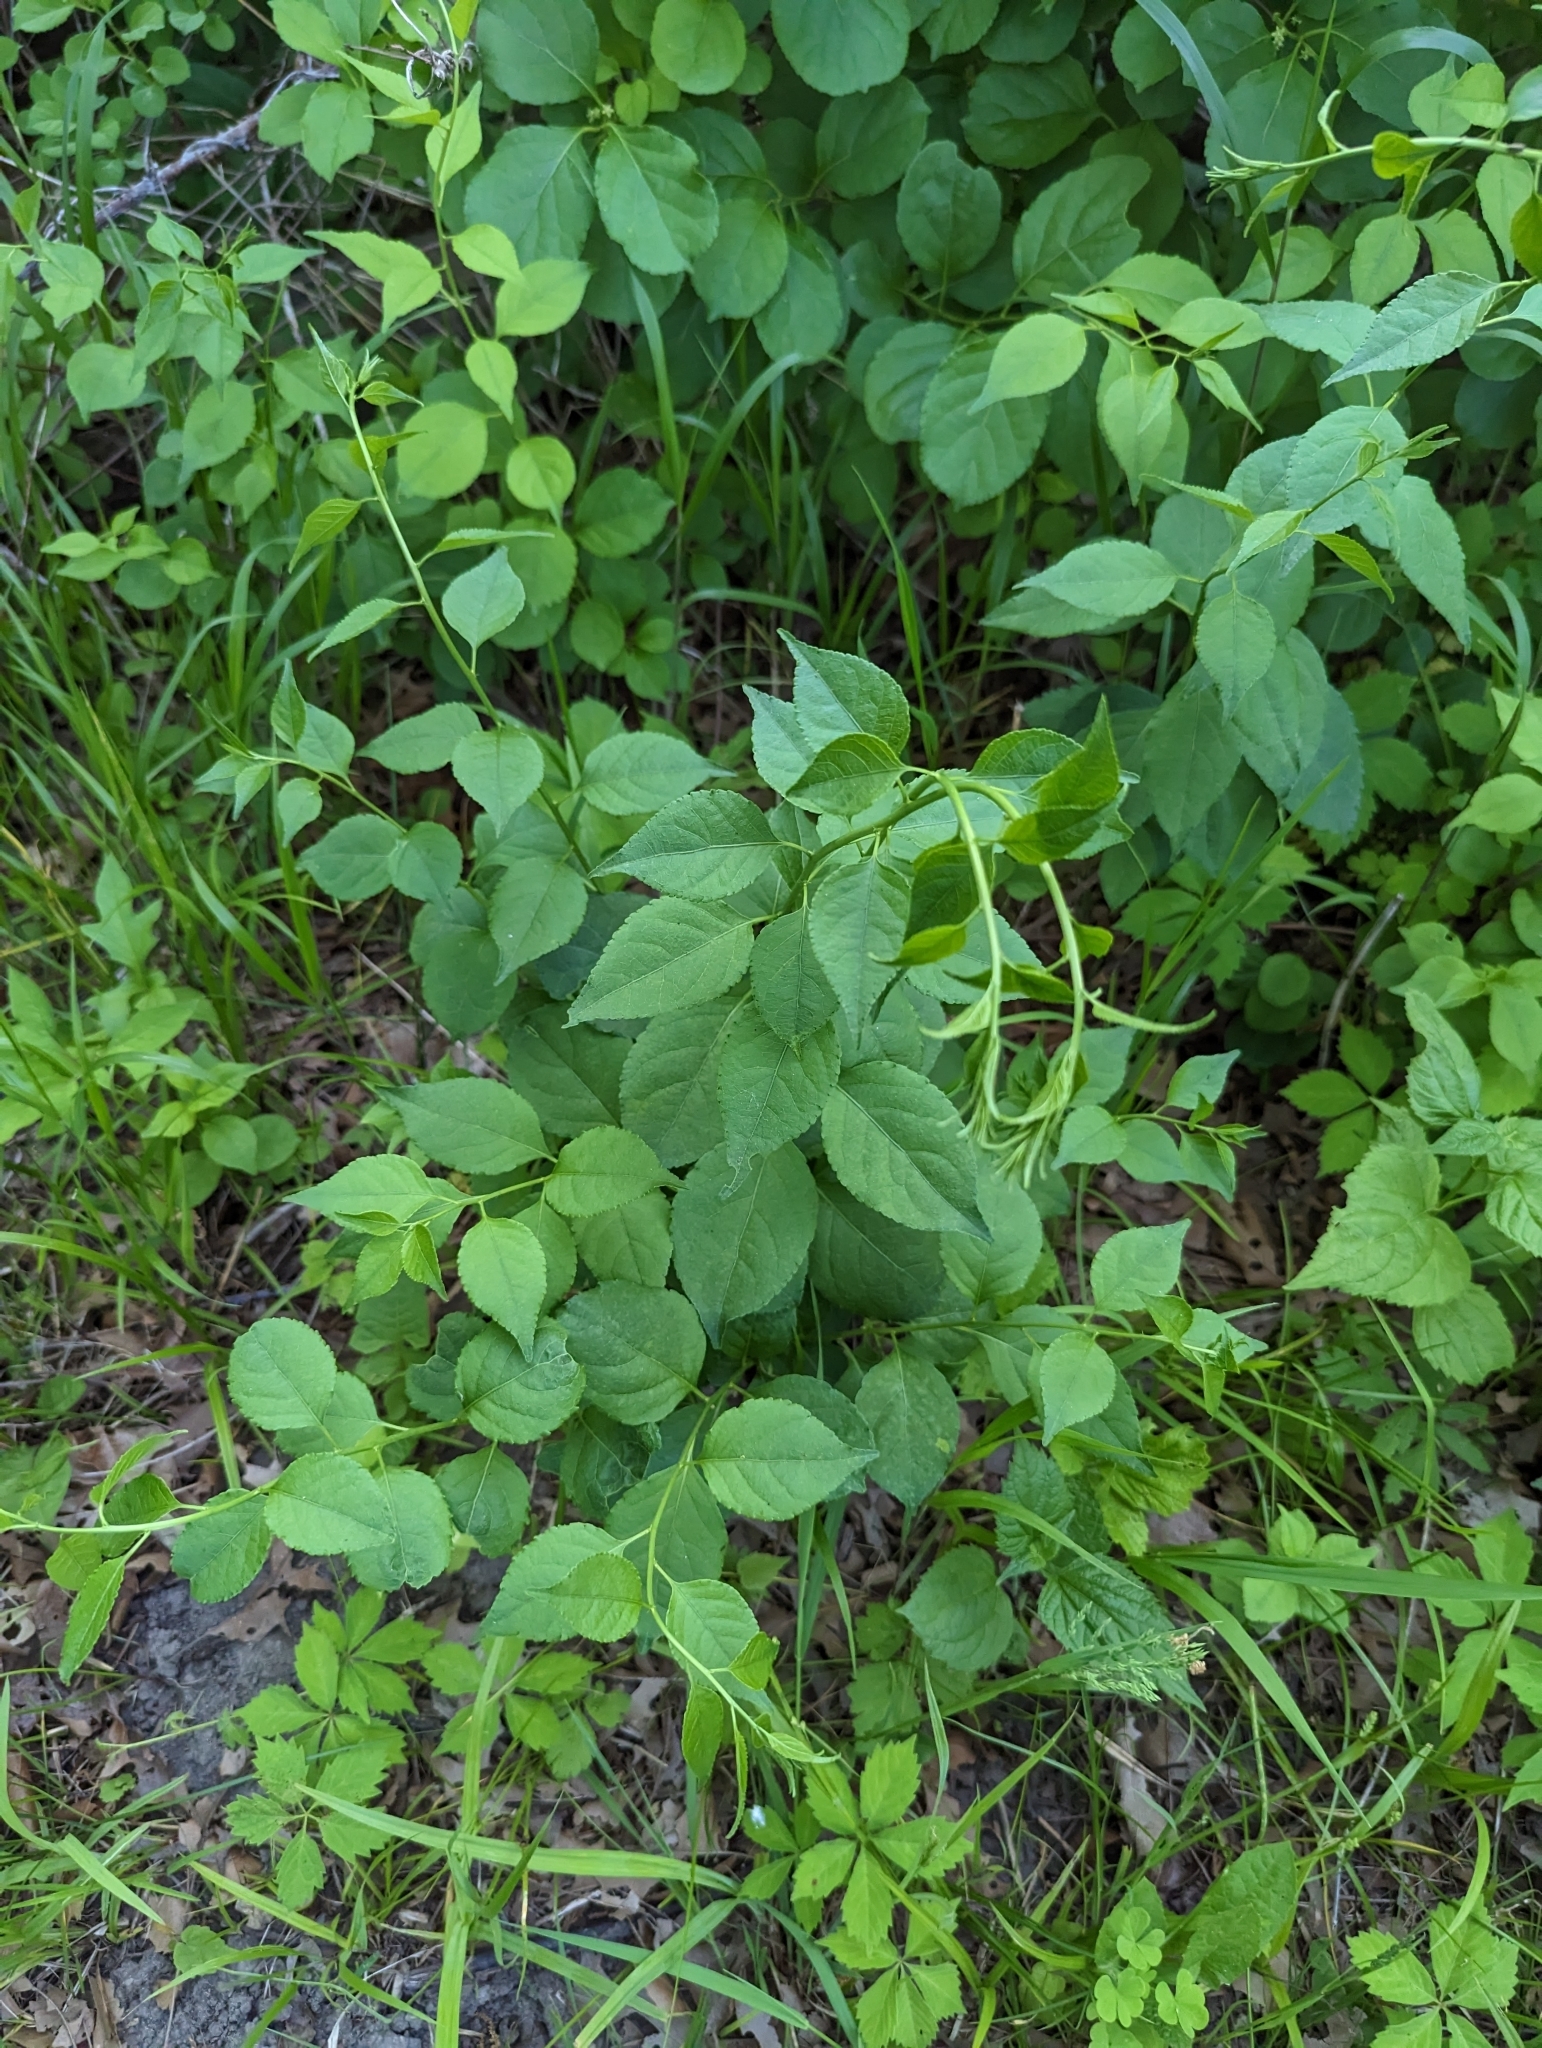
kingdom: Plantae
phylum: Tracheophyta
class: Magnoliopsida
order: Celastrales
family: Celastraceae
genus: Celastrus
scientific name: Celastrus orbiculatus
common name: Oriental bittersweet
